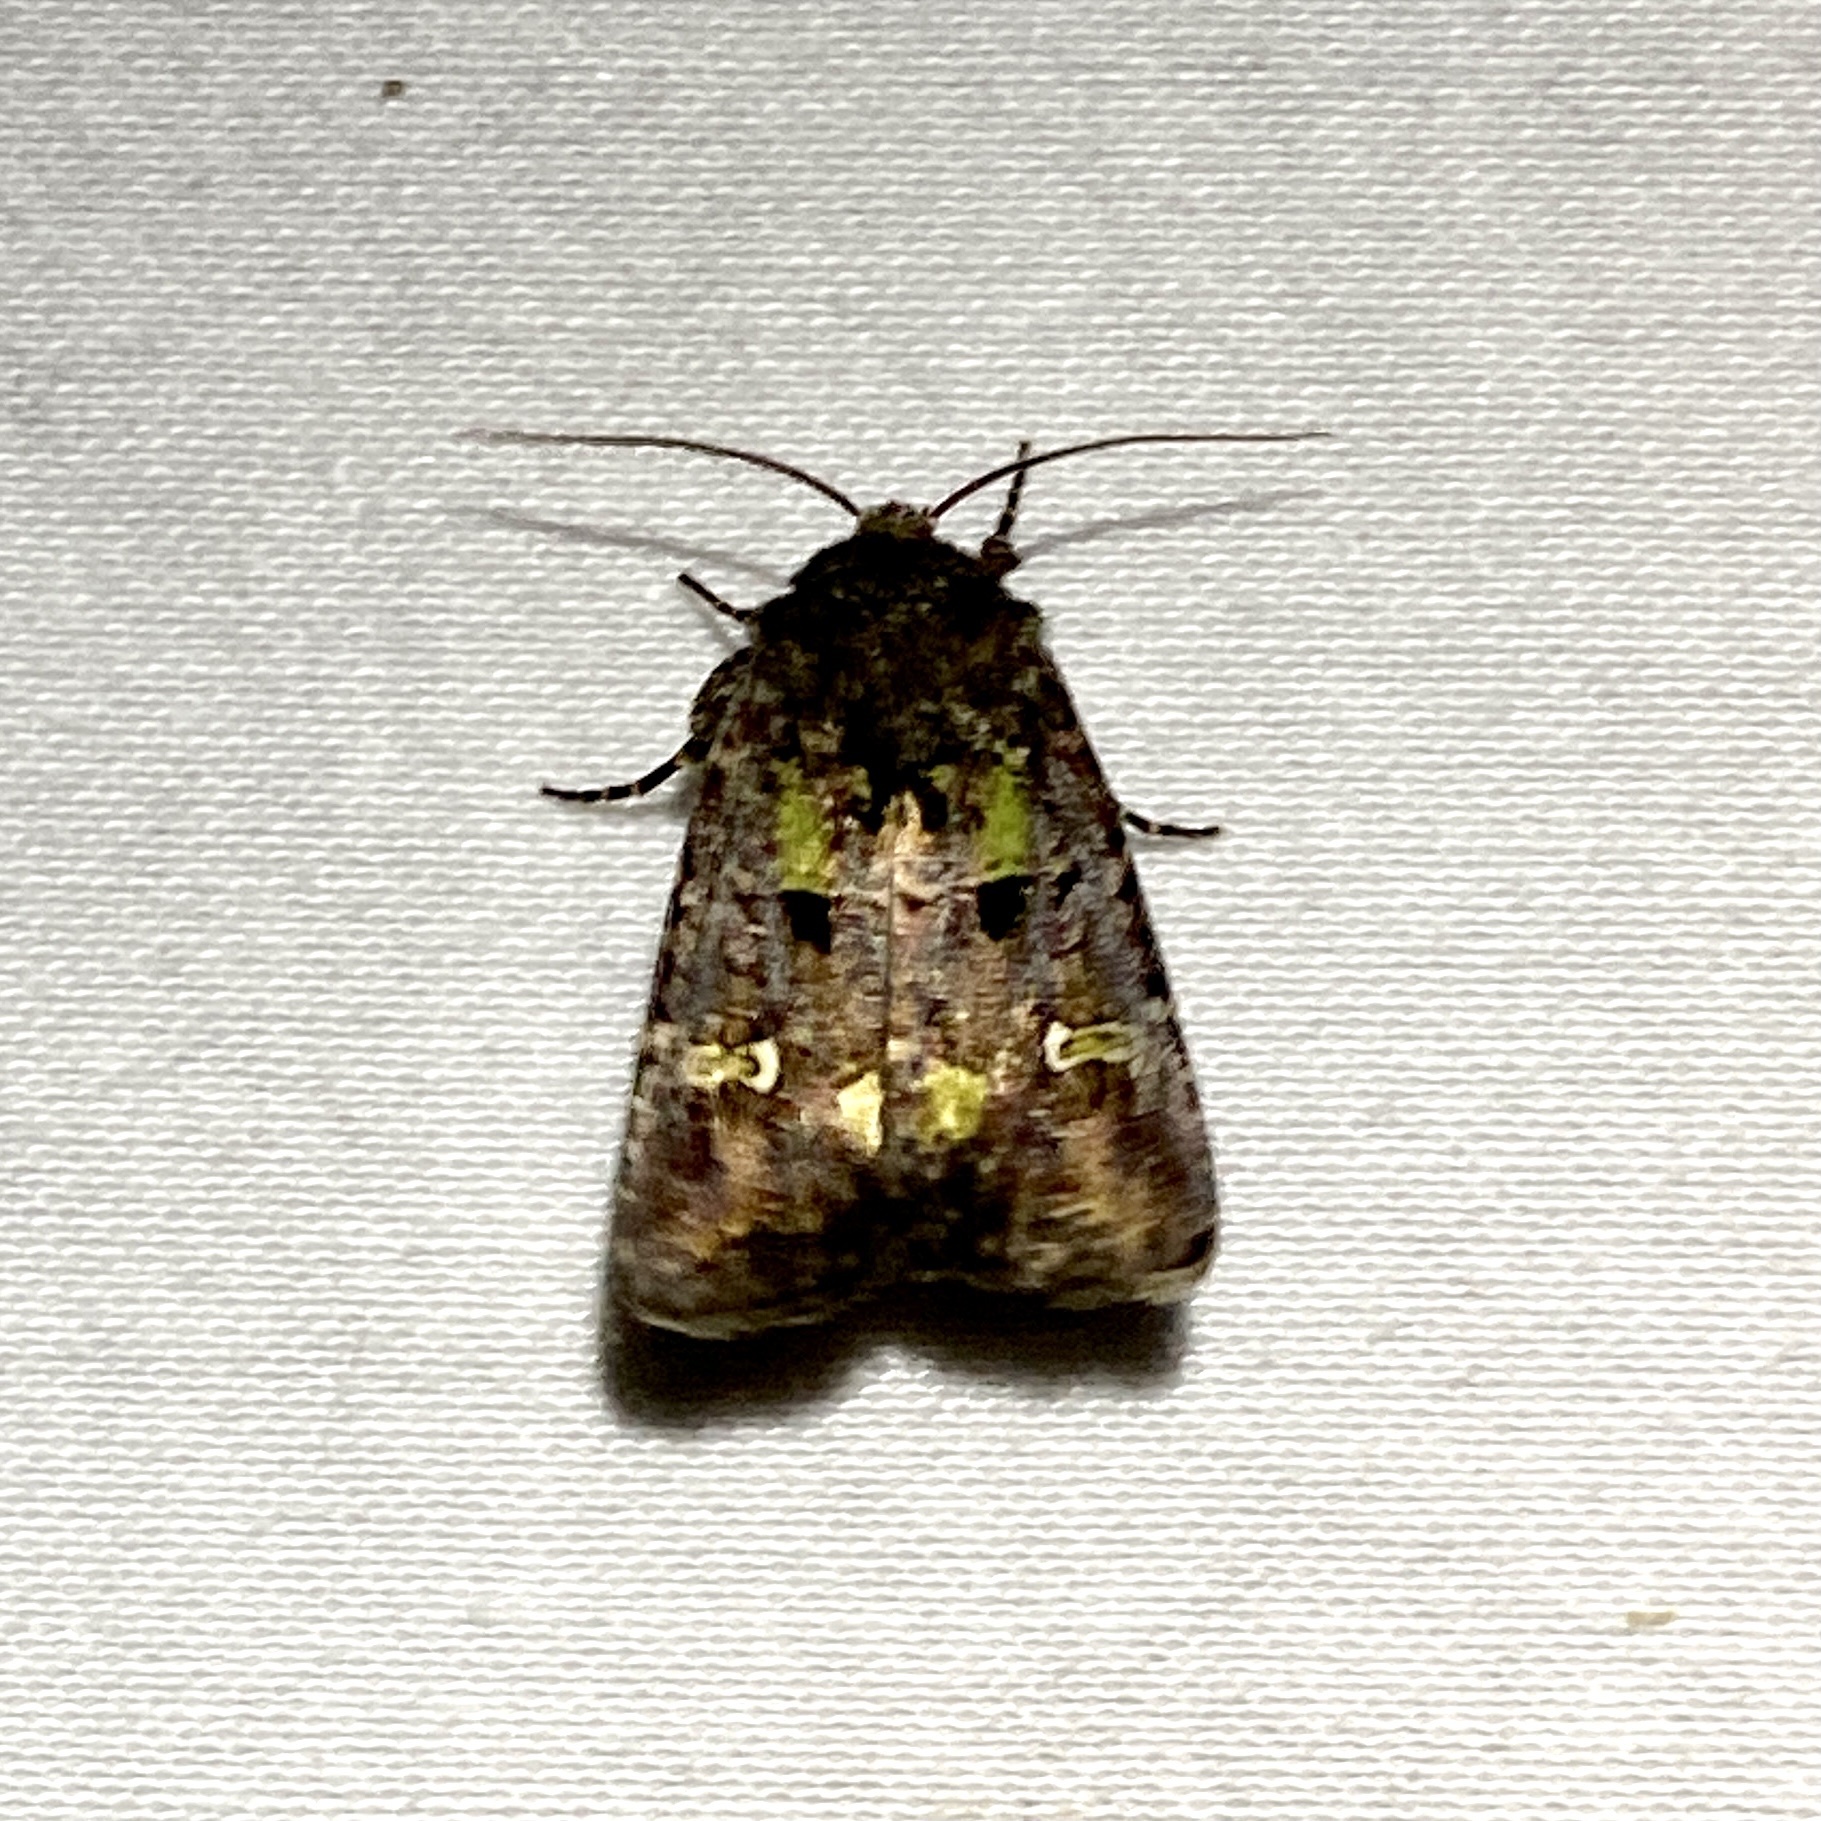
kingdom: Animalia
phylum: Arthropoda
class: Insecta
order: Lepidoptera
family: Noctuidae
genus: Lacinipolia
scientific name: Lacinipolia renigera
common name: Kidney-spotted minor
